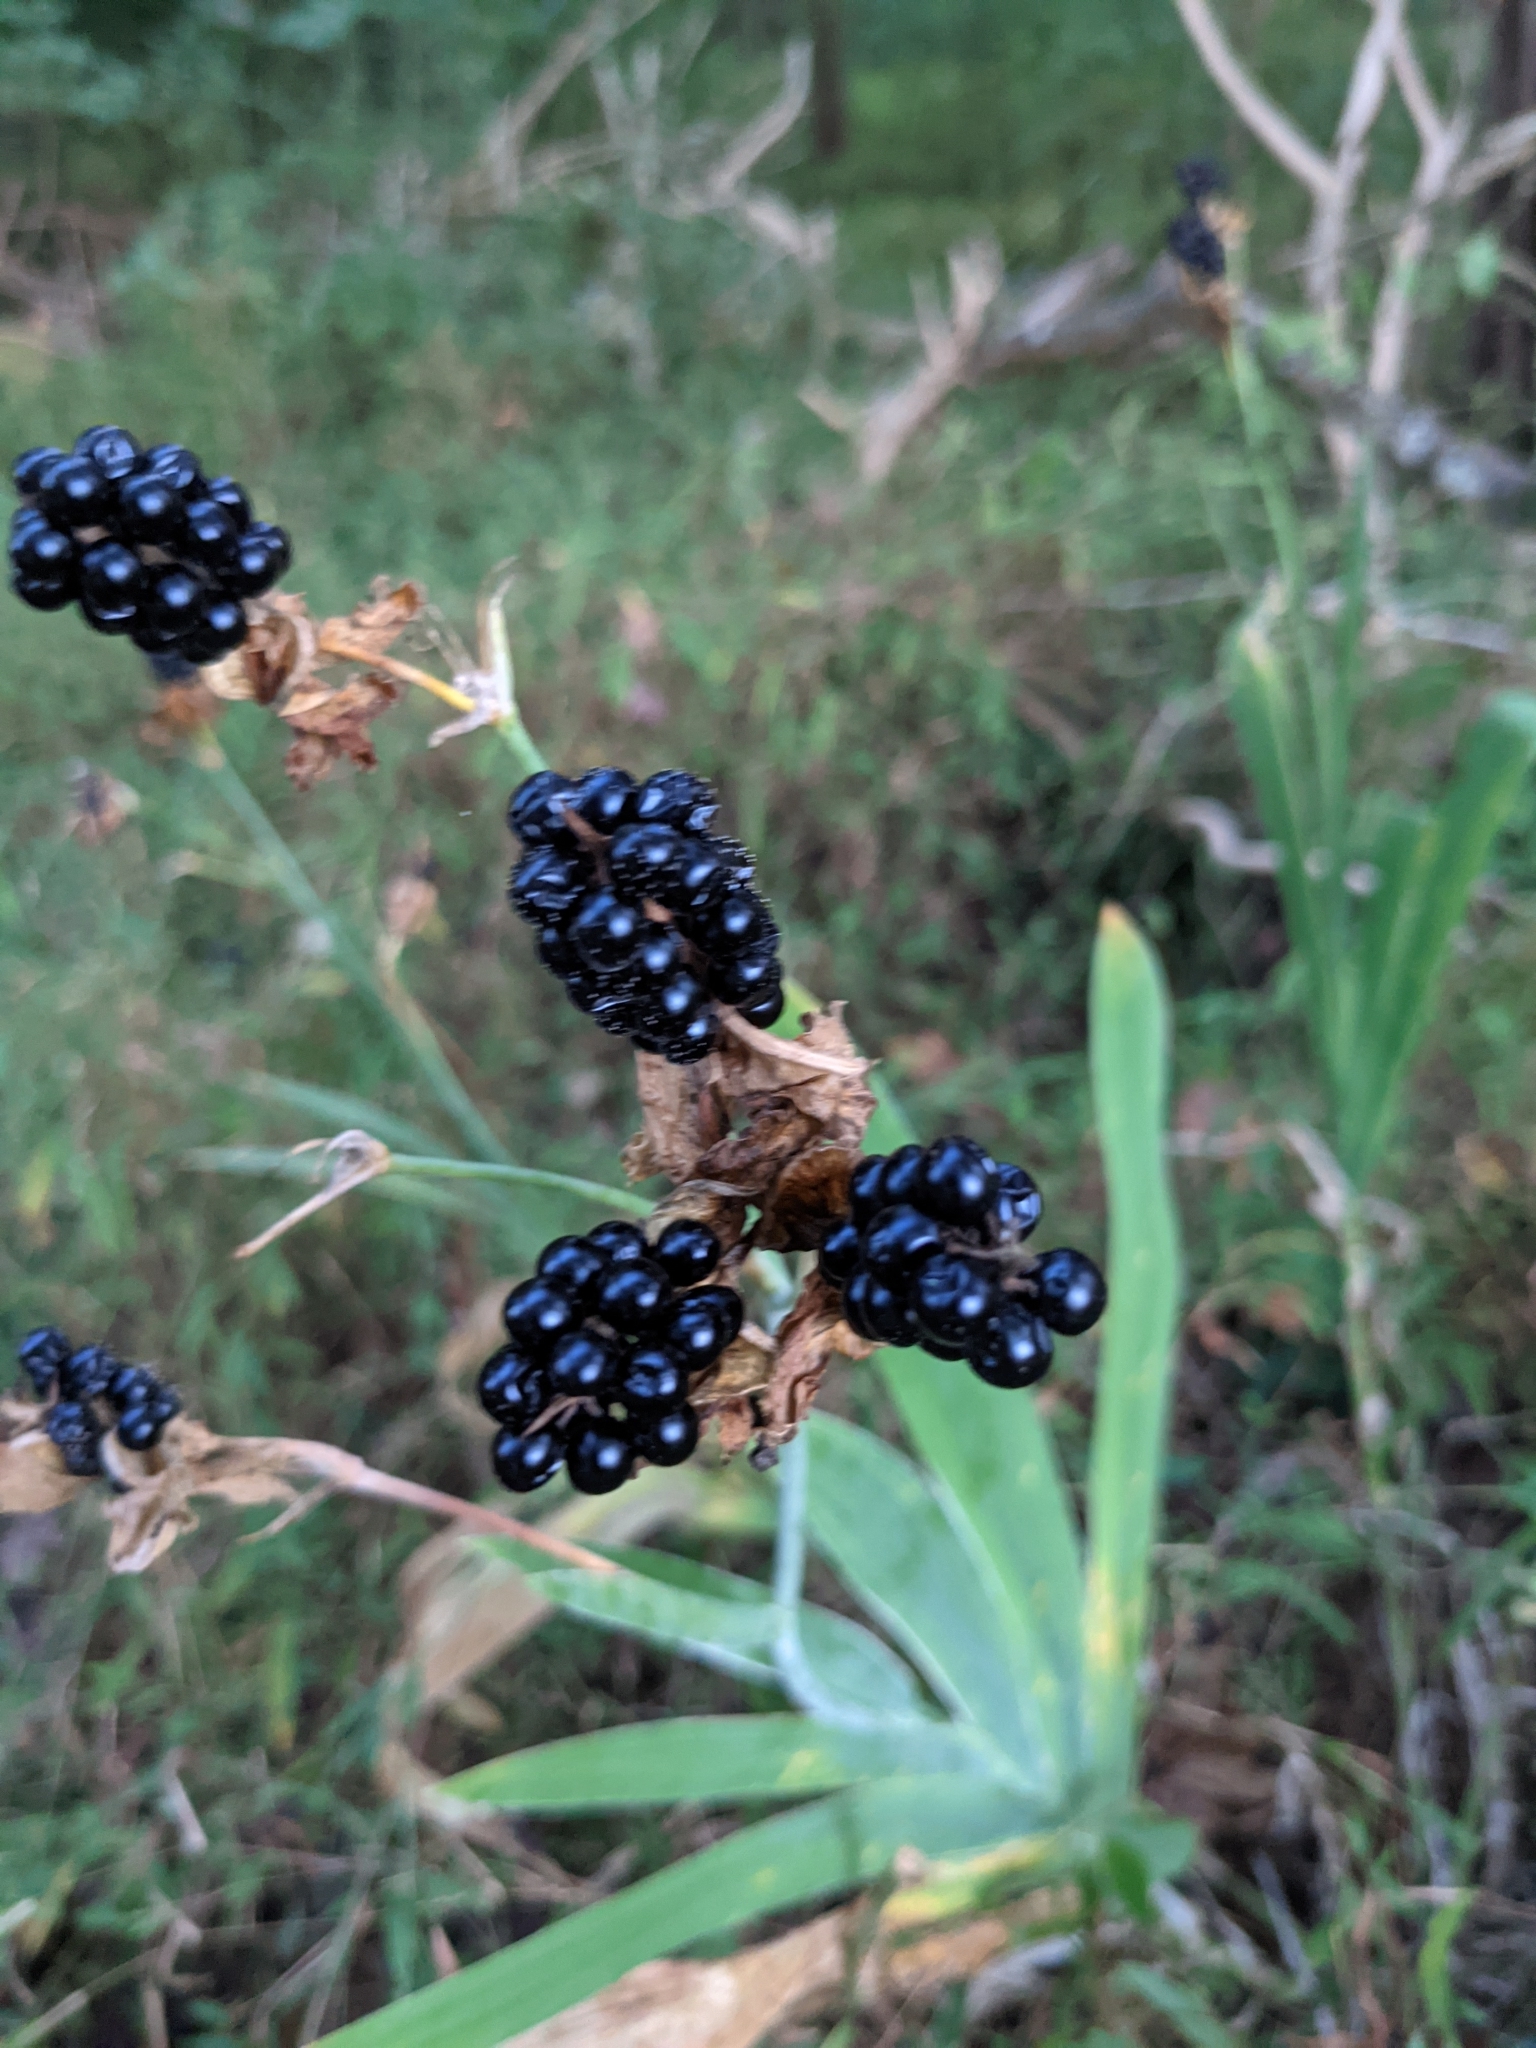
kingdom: Plantae
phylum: Tracheophyta
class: Liliopsida
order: Asparagales
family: Iridaceae
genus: Iris
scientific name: Iris domestica
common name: Belamcanda
